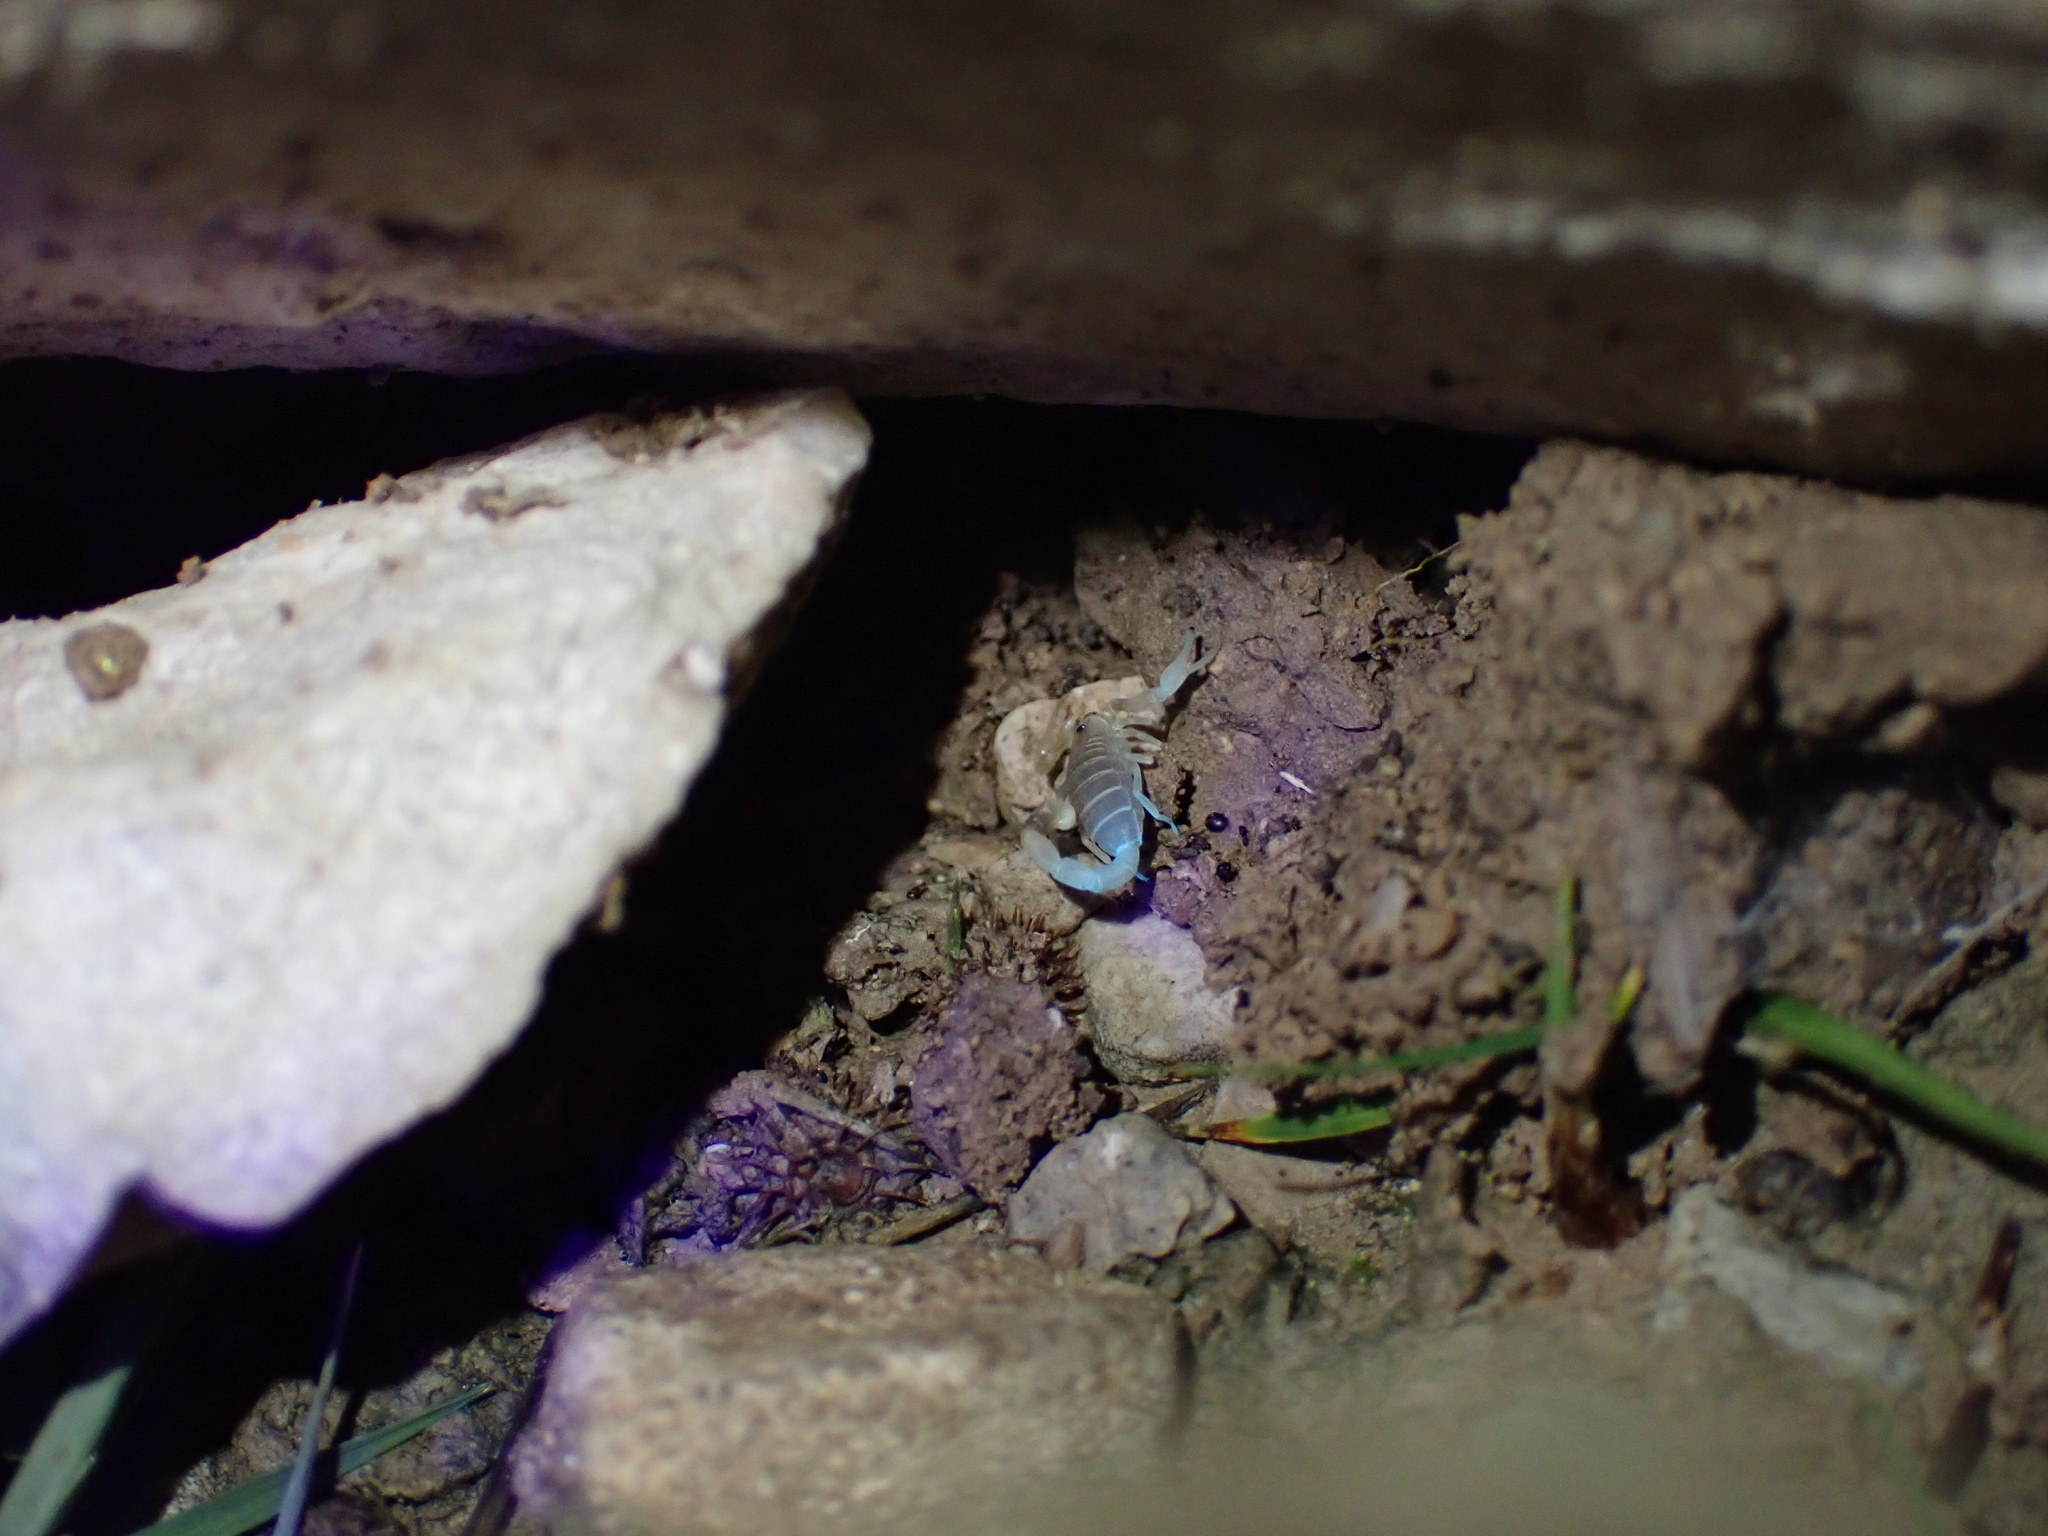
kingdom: Animalia
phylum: Arthropoda
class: Arachnida
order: Scorpiones
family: Buthidae
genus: Razianus
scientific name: Razianus zarudnyi
